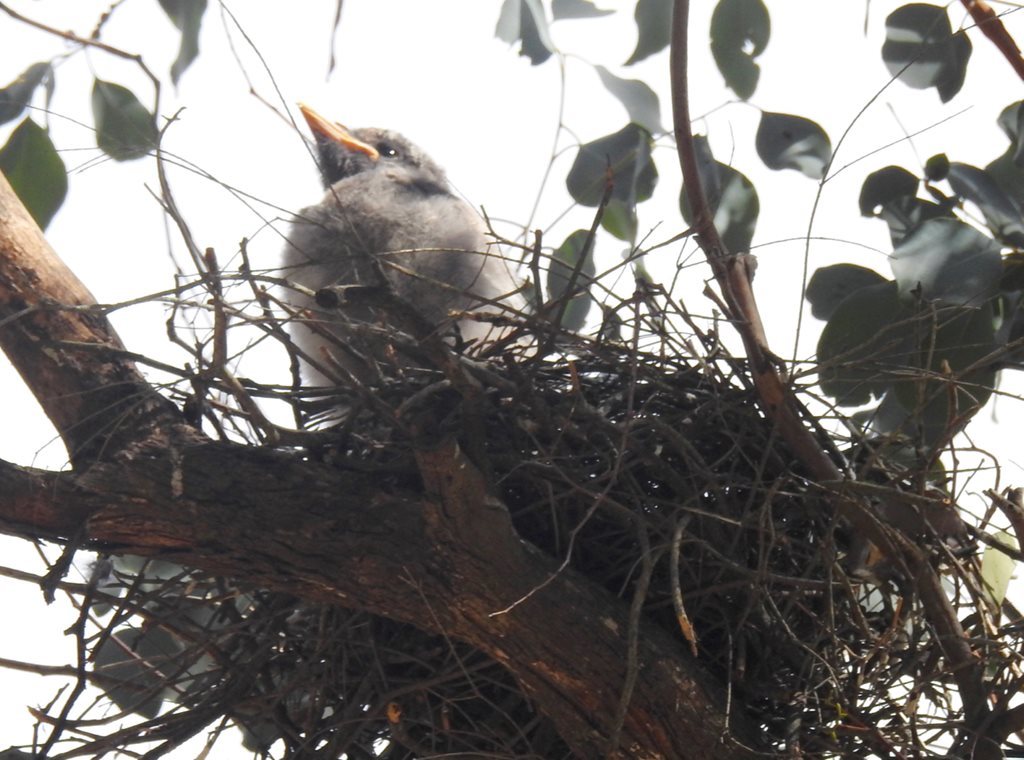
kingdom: Animalia
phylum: Chordata
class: Aves
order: Passeriformes
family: Cracticidae
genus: Strepera
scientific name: Strepera graculina
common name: Pied currawong
